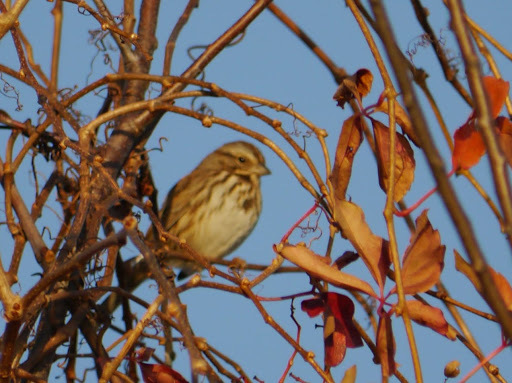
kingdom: Animalia
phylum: Chordata
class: Aves
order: Passeriformes
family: Passerellidae
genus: Melospiza
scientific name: Melospiza melodia
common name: Song sparrow
